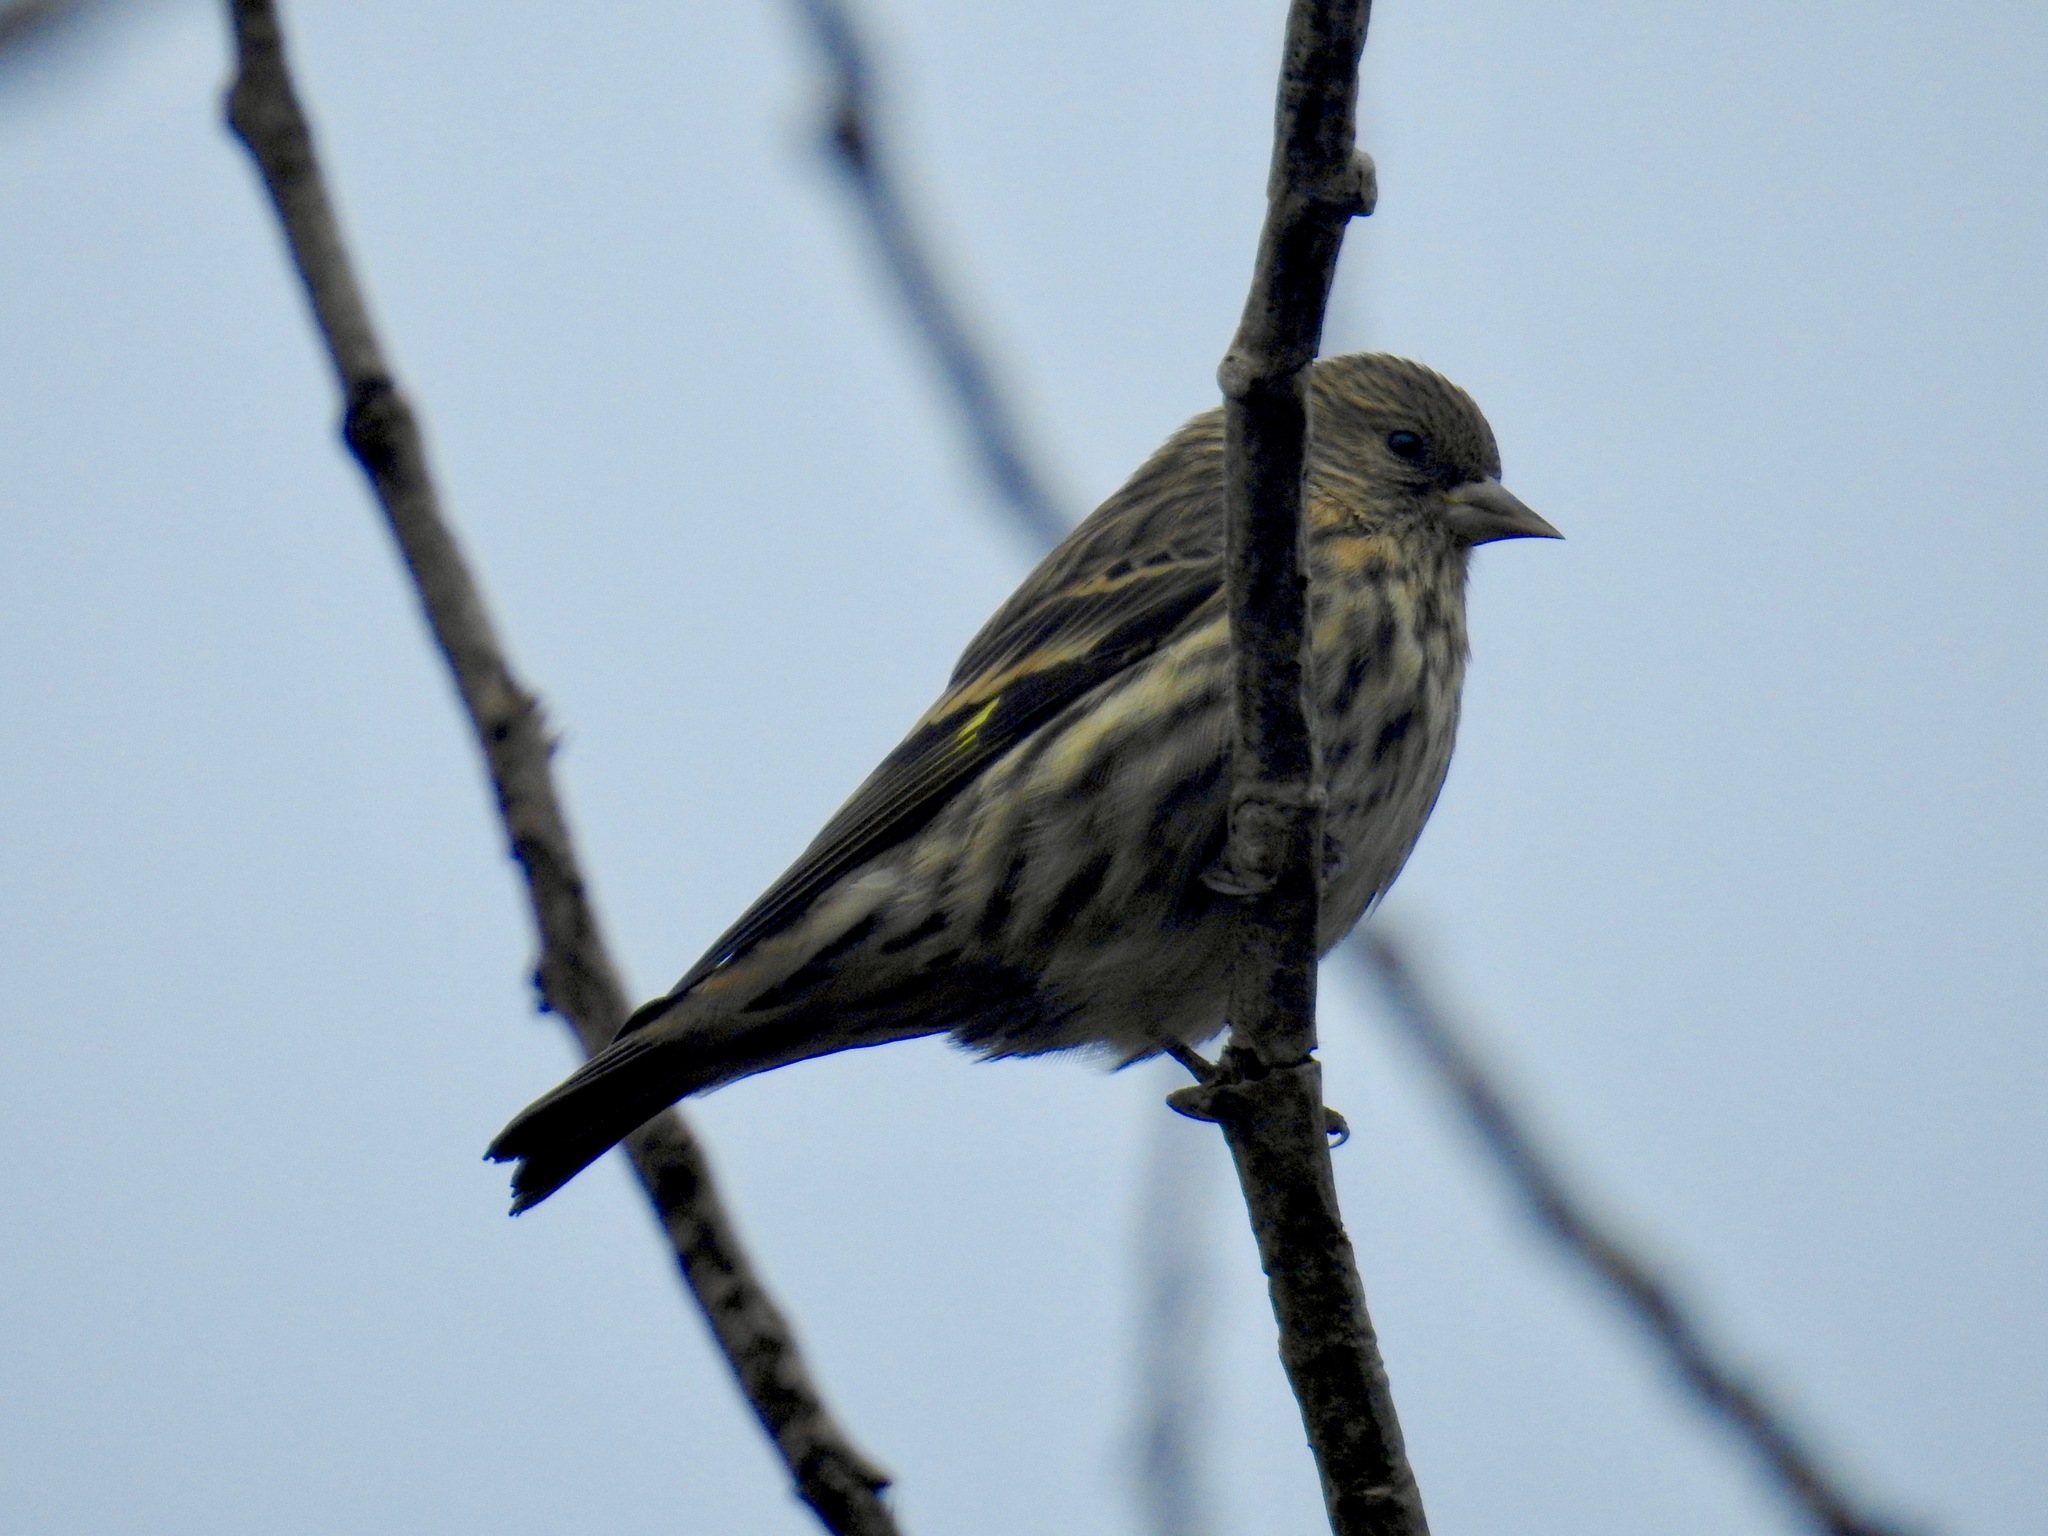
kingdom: Animalia
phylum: Chordata
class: Aves
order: Passeriformes
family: Fringillidae
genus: Spinus
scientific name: Spinus pinus
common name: Pine siskin
